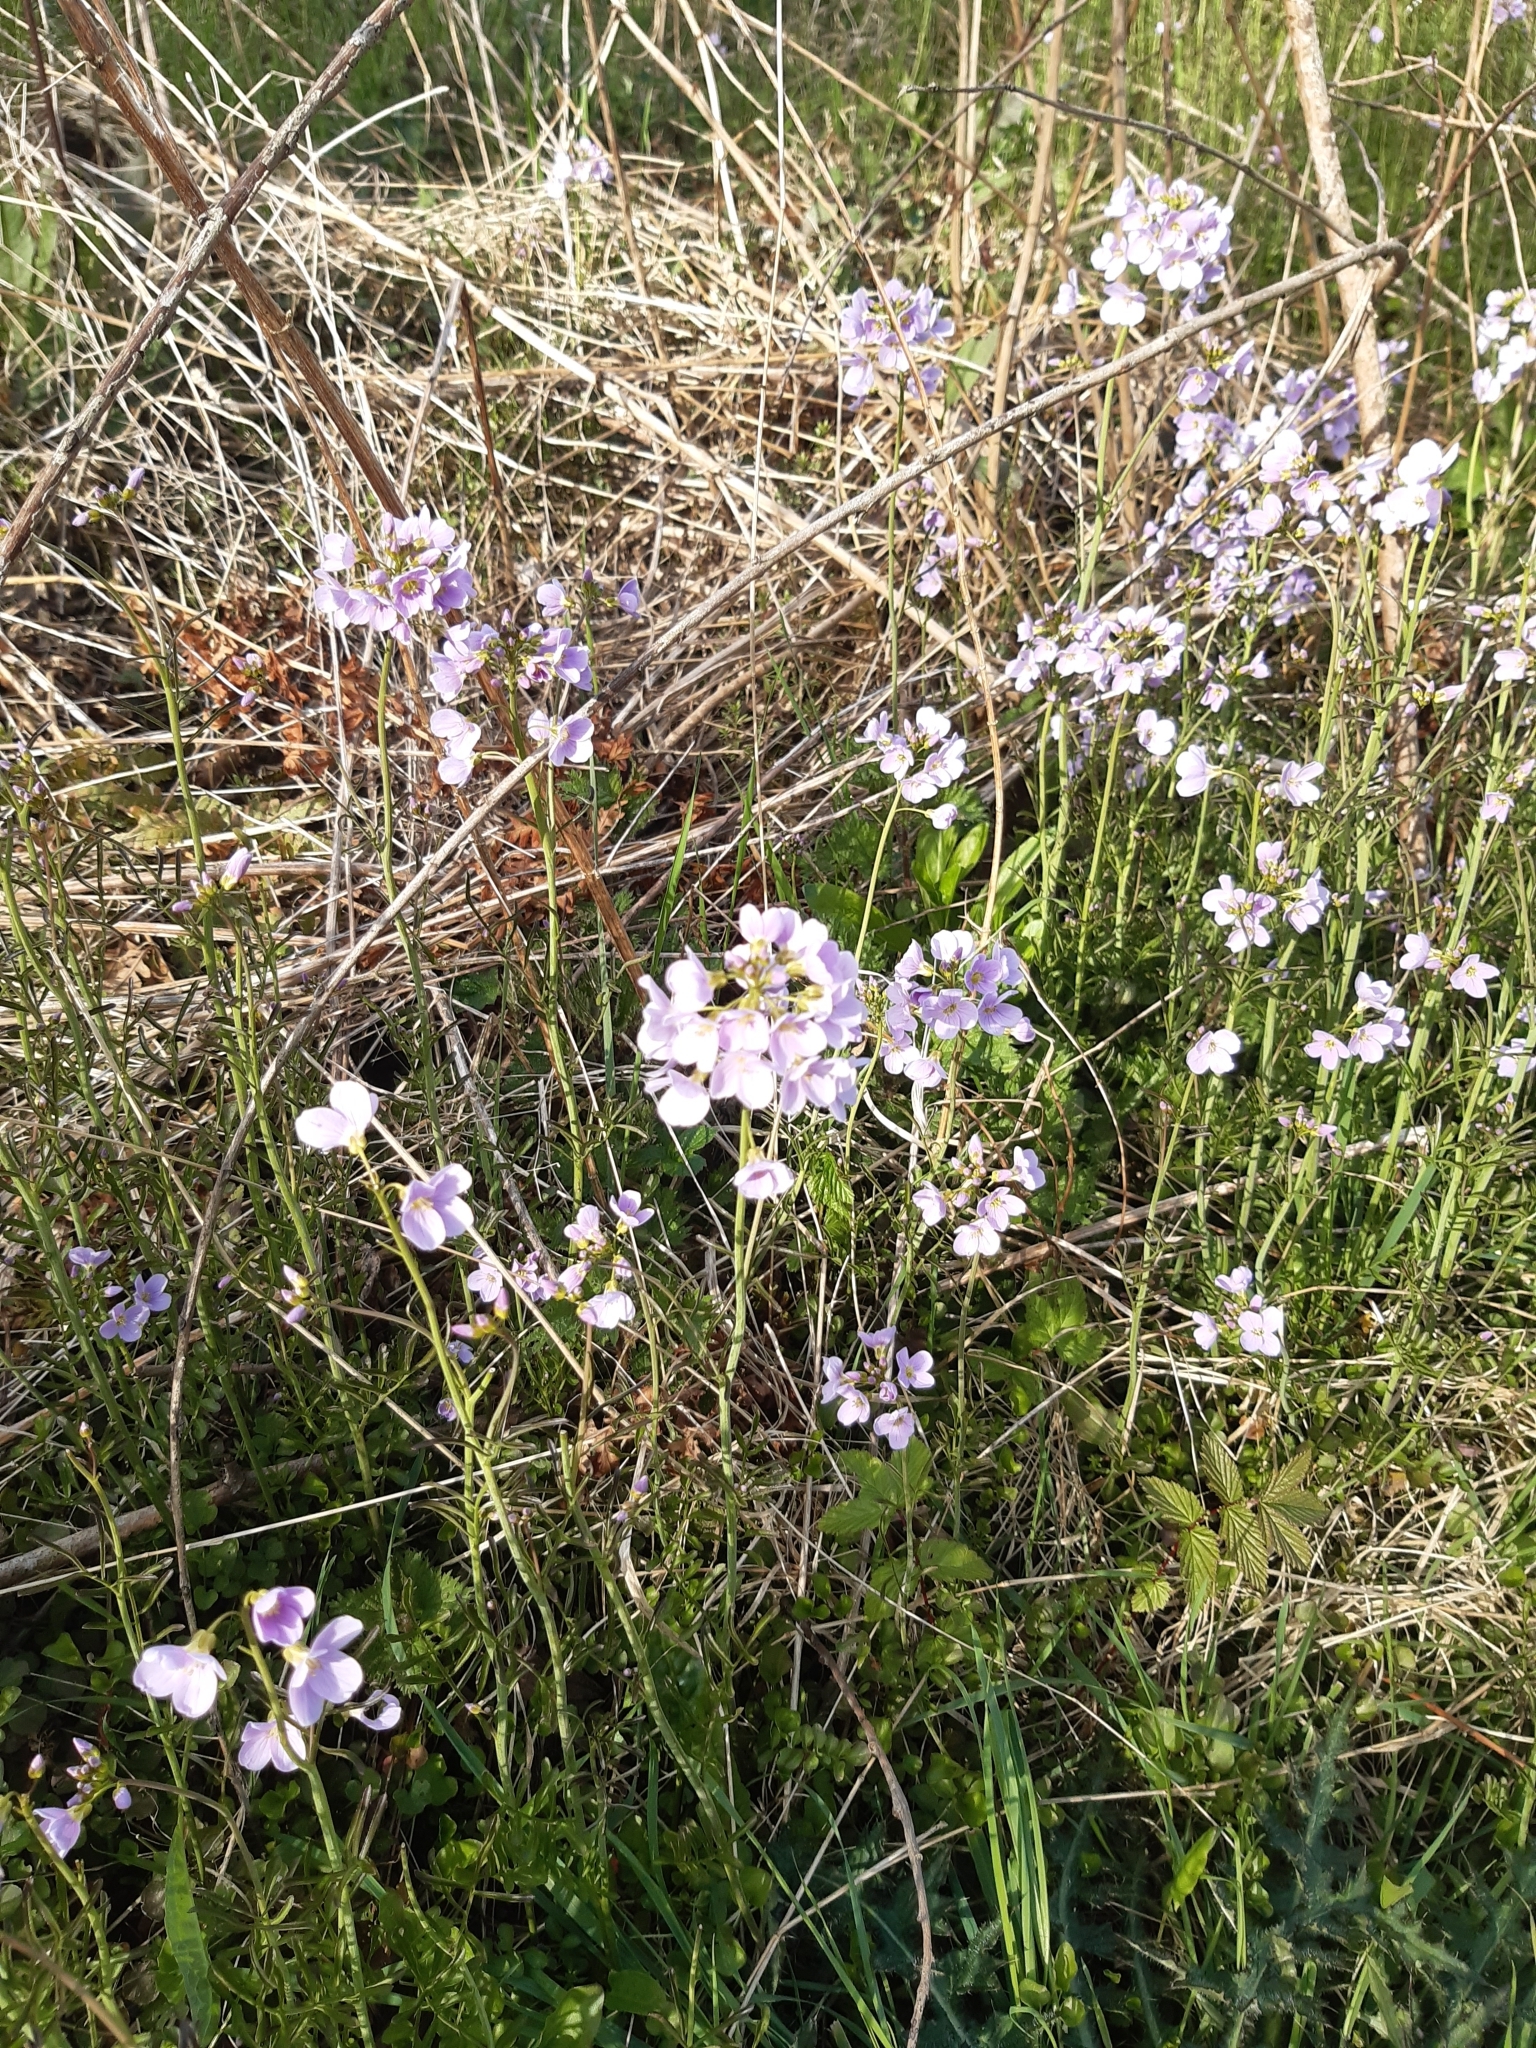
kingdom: Plantae
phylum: Tracheophyta
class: Magnoliopsida
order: Brassicales
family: Brassicaceae
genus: Cardamine
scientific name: Cardamine pratensis
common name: Cuckoo flower
